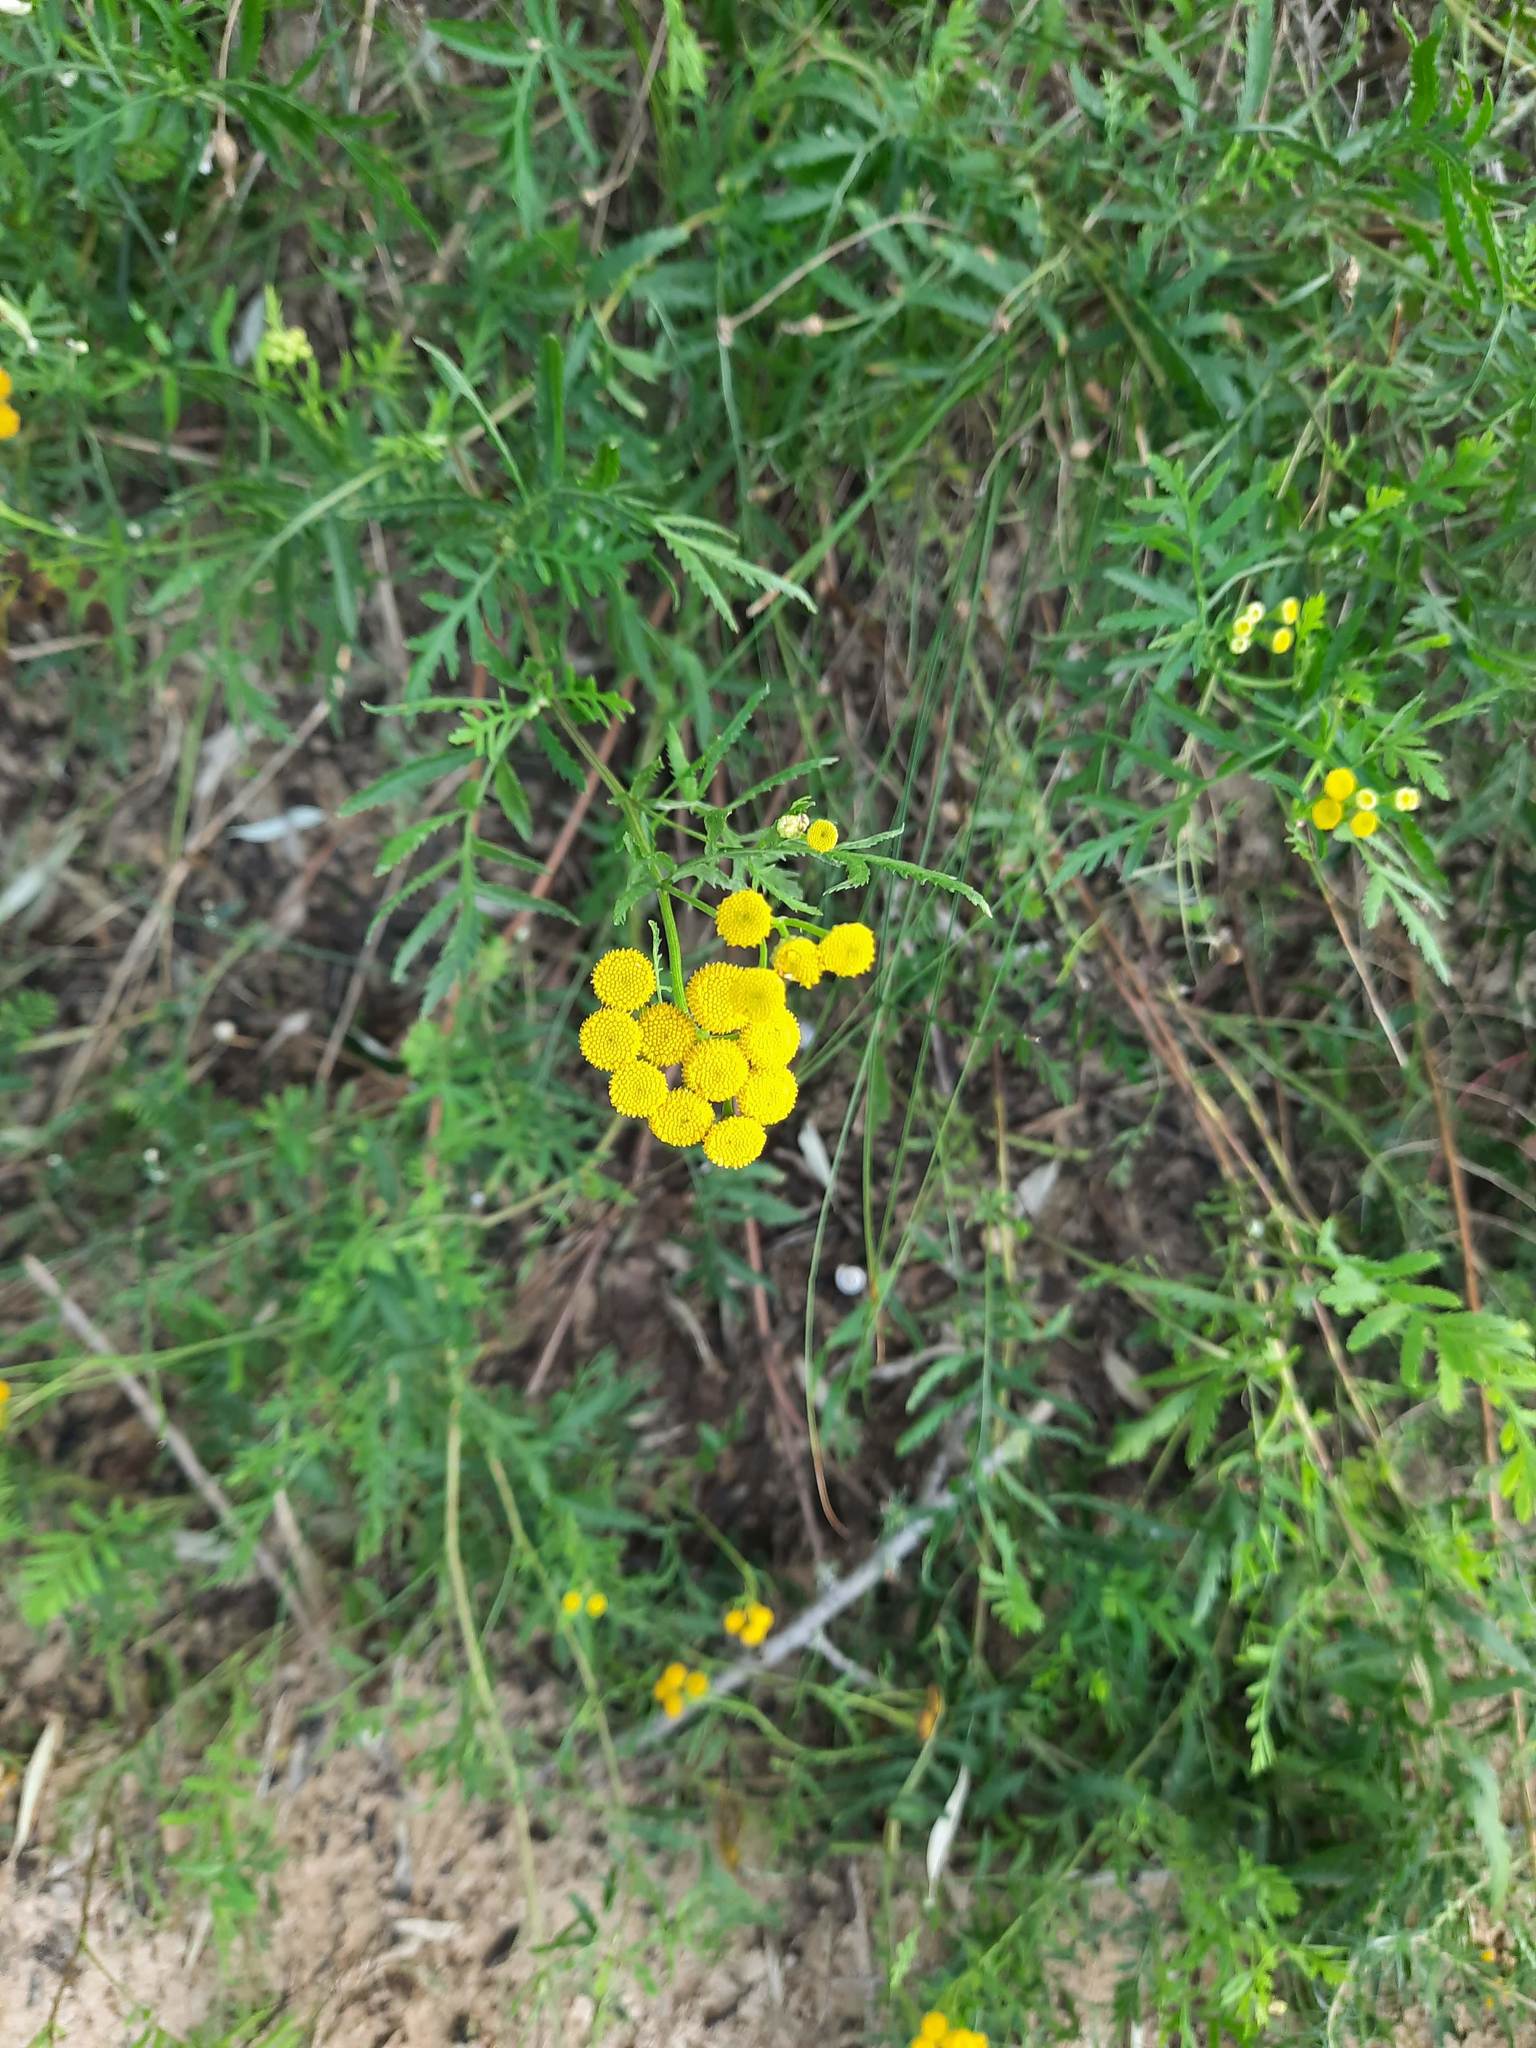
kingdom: Plantae
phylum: Tracheophyta
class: Magnoliopsida
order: Asterales
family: Asteraceae
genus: Tanacetum
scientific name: Tanacetum vulgare
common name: Common tansy
